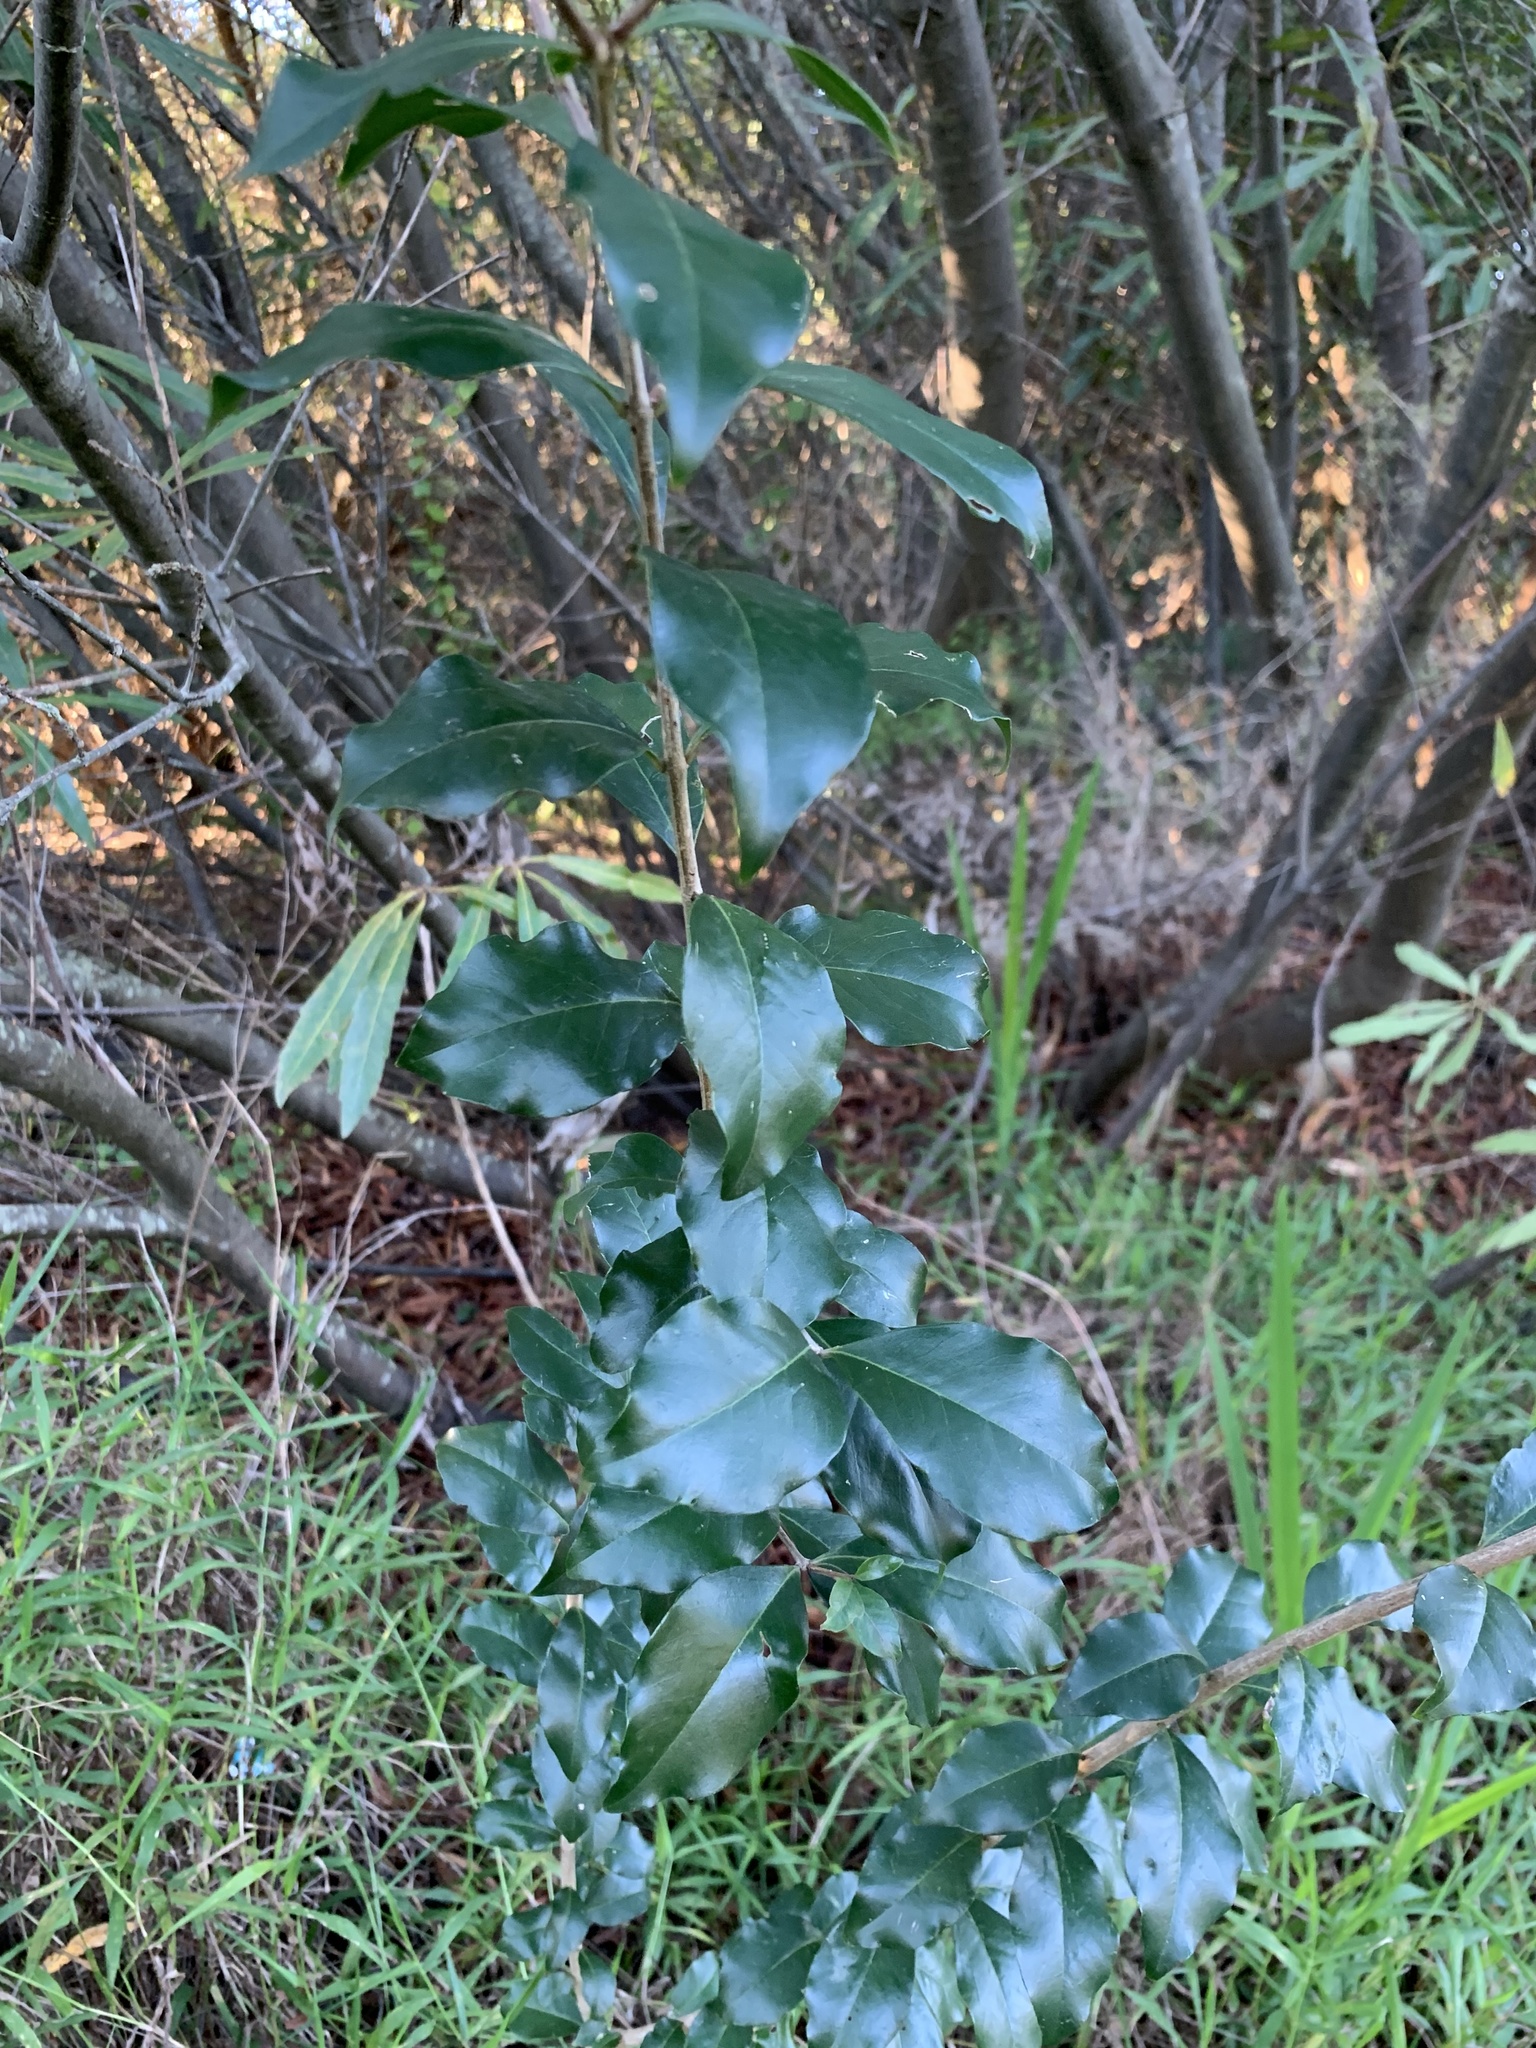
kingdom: Plantae
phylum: Tracheophyta
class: Magnoliopsida
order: Myrtales
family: Penaeaceae
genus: Olinia
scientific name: Olinia ventosa
